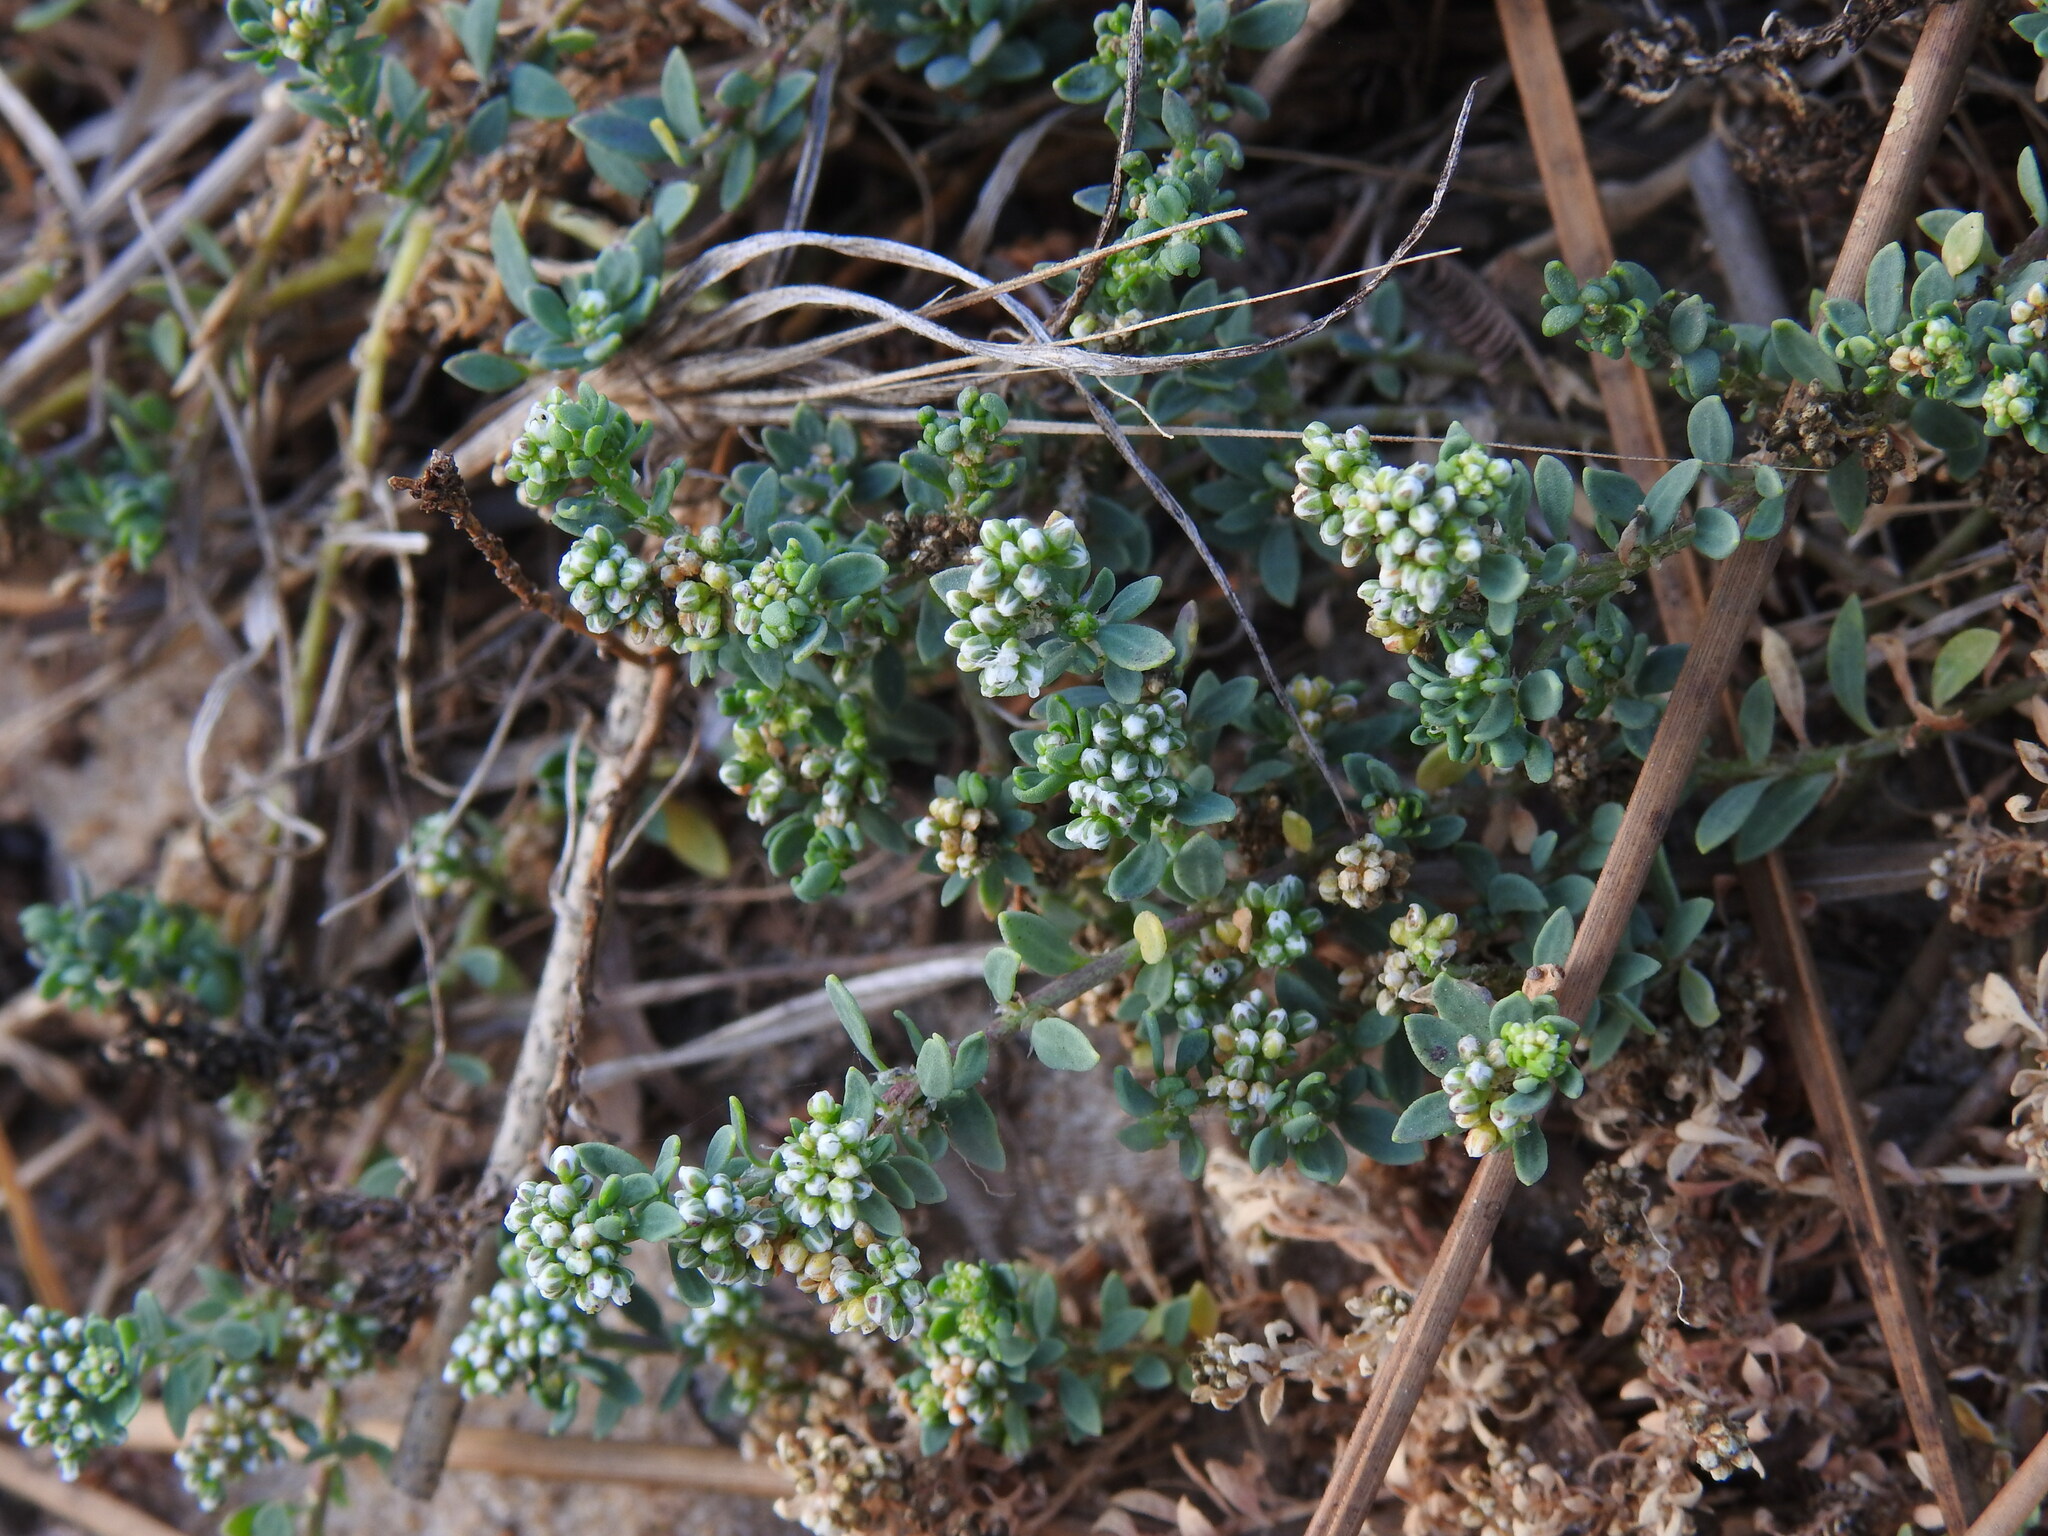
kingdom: Plantae
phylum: Tracheophyta
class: Magnoliopsida
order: Caryophyllales
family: Caryophyllaceae
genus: Corrigiola
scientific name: Corrigiola litoralis
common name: Strapwort
